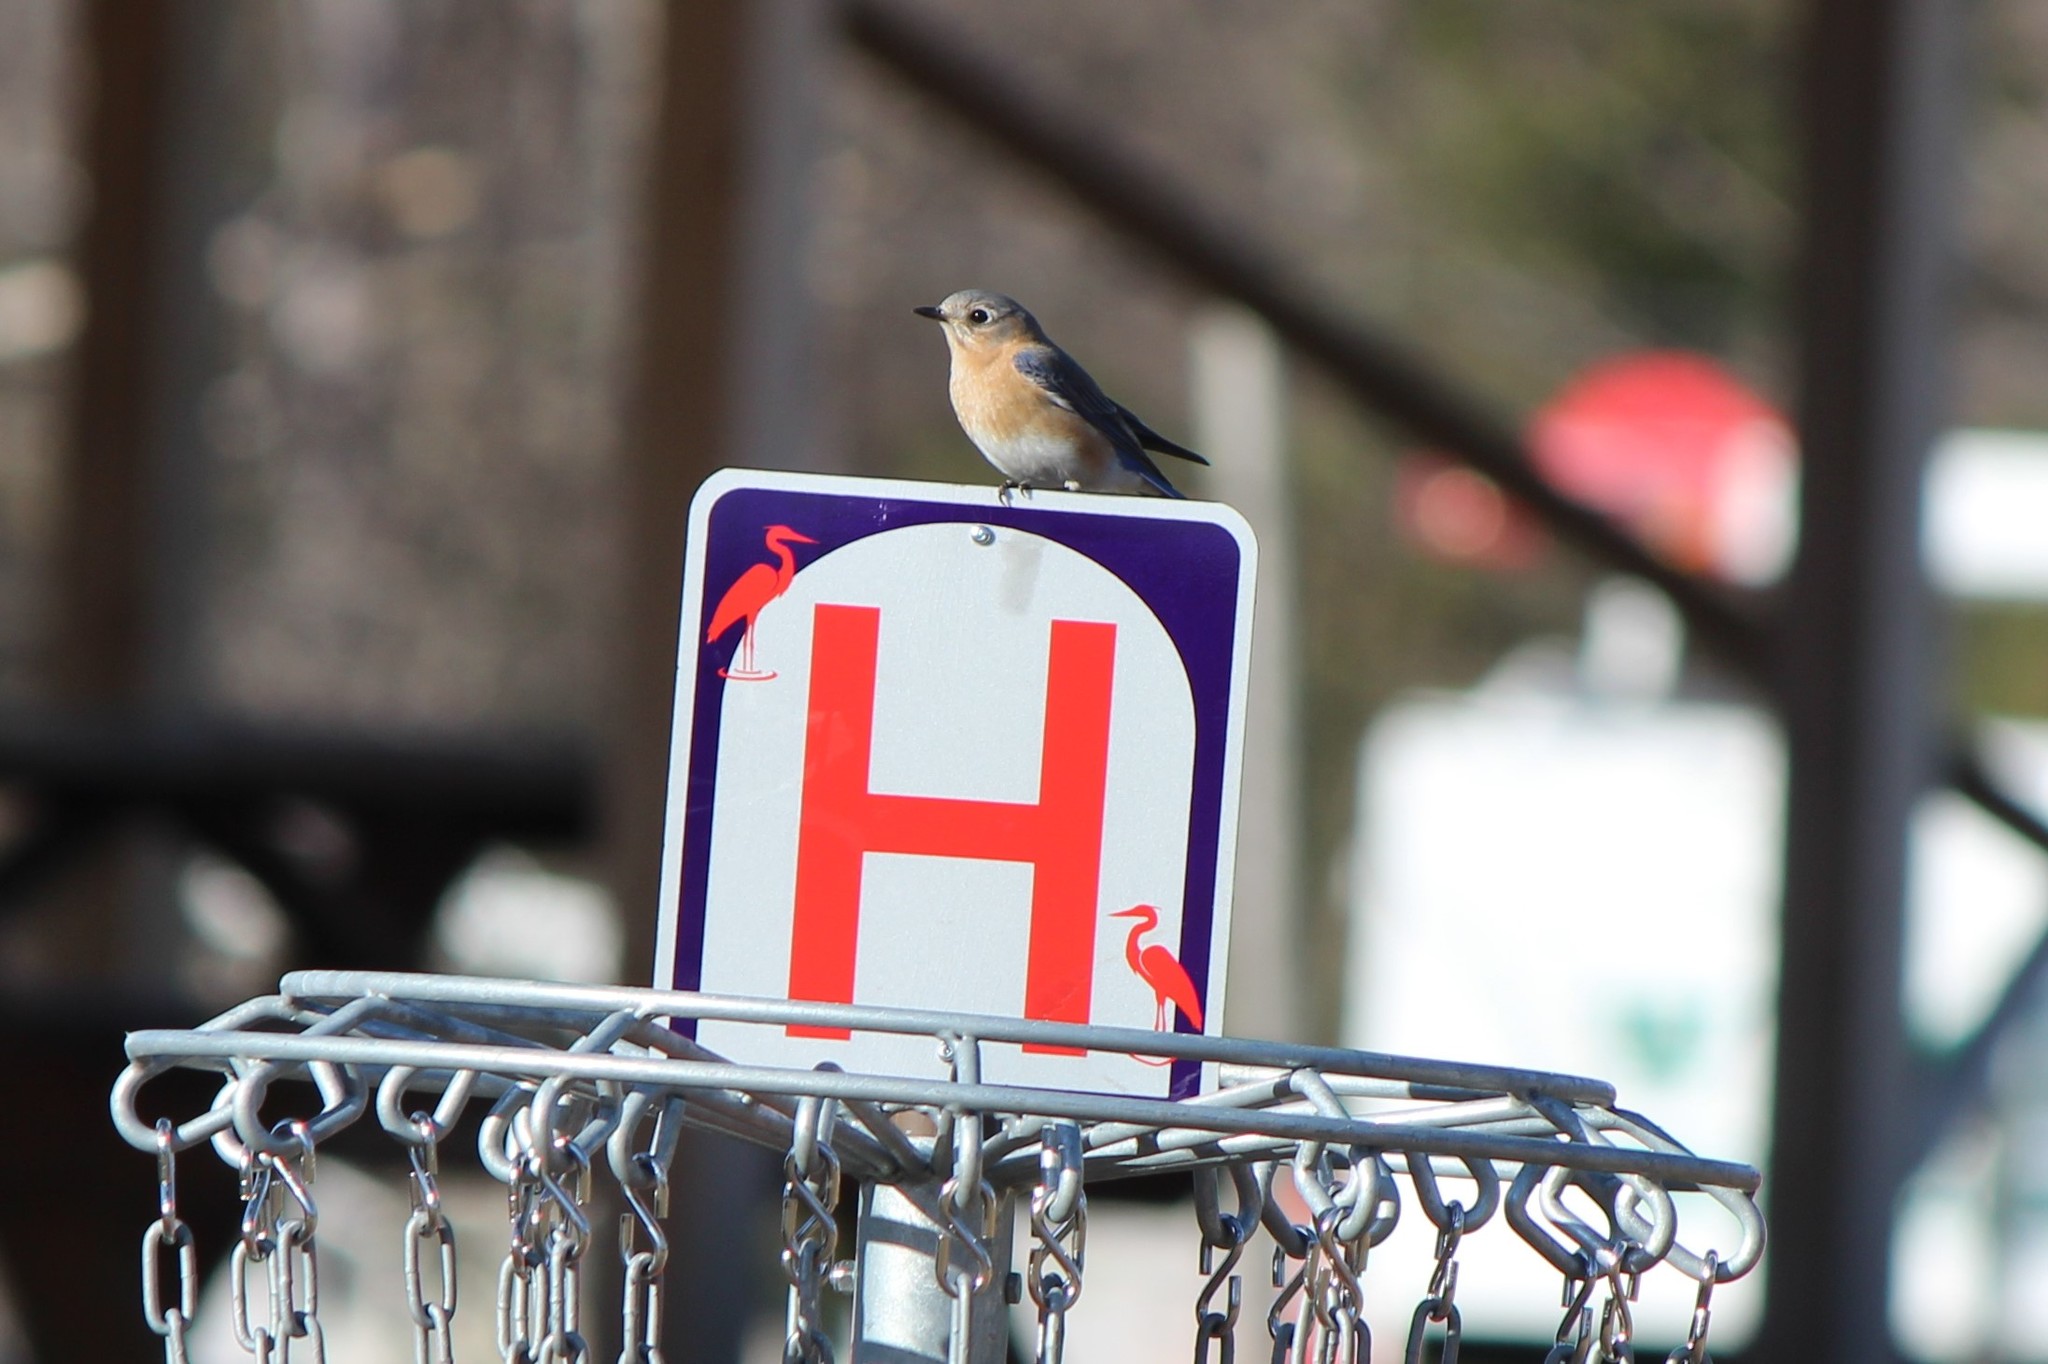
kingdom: Animalia
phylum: Chordata
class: Aves
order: Passeriformes
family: Turdidae
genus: Sialia
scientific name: Sialia sialis
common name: Eastern bluebird
